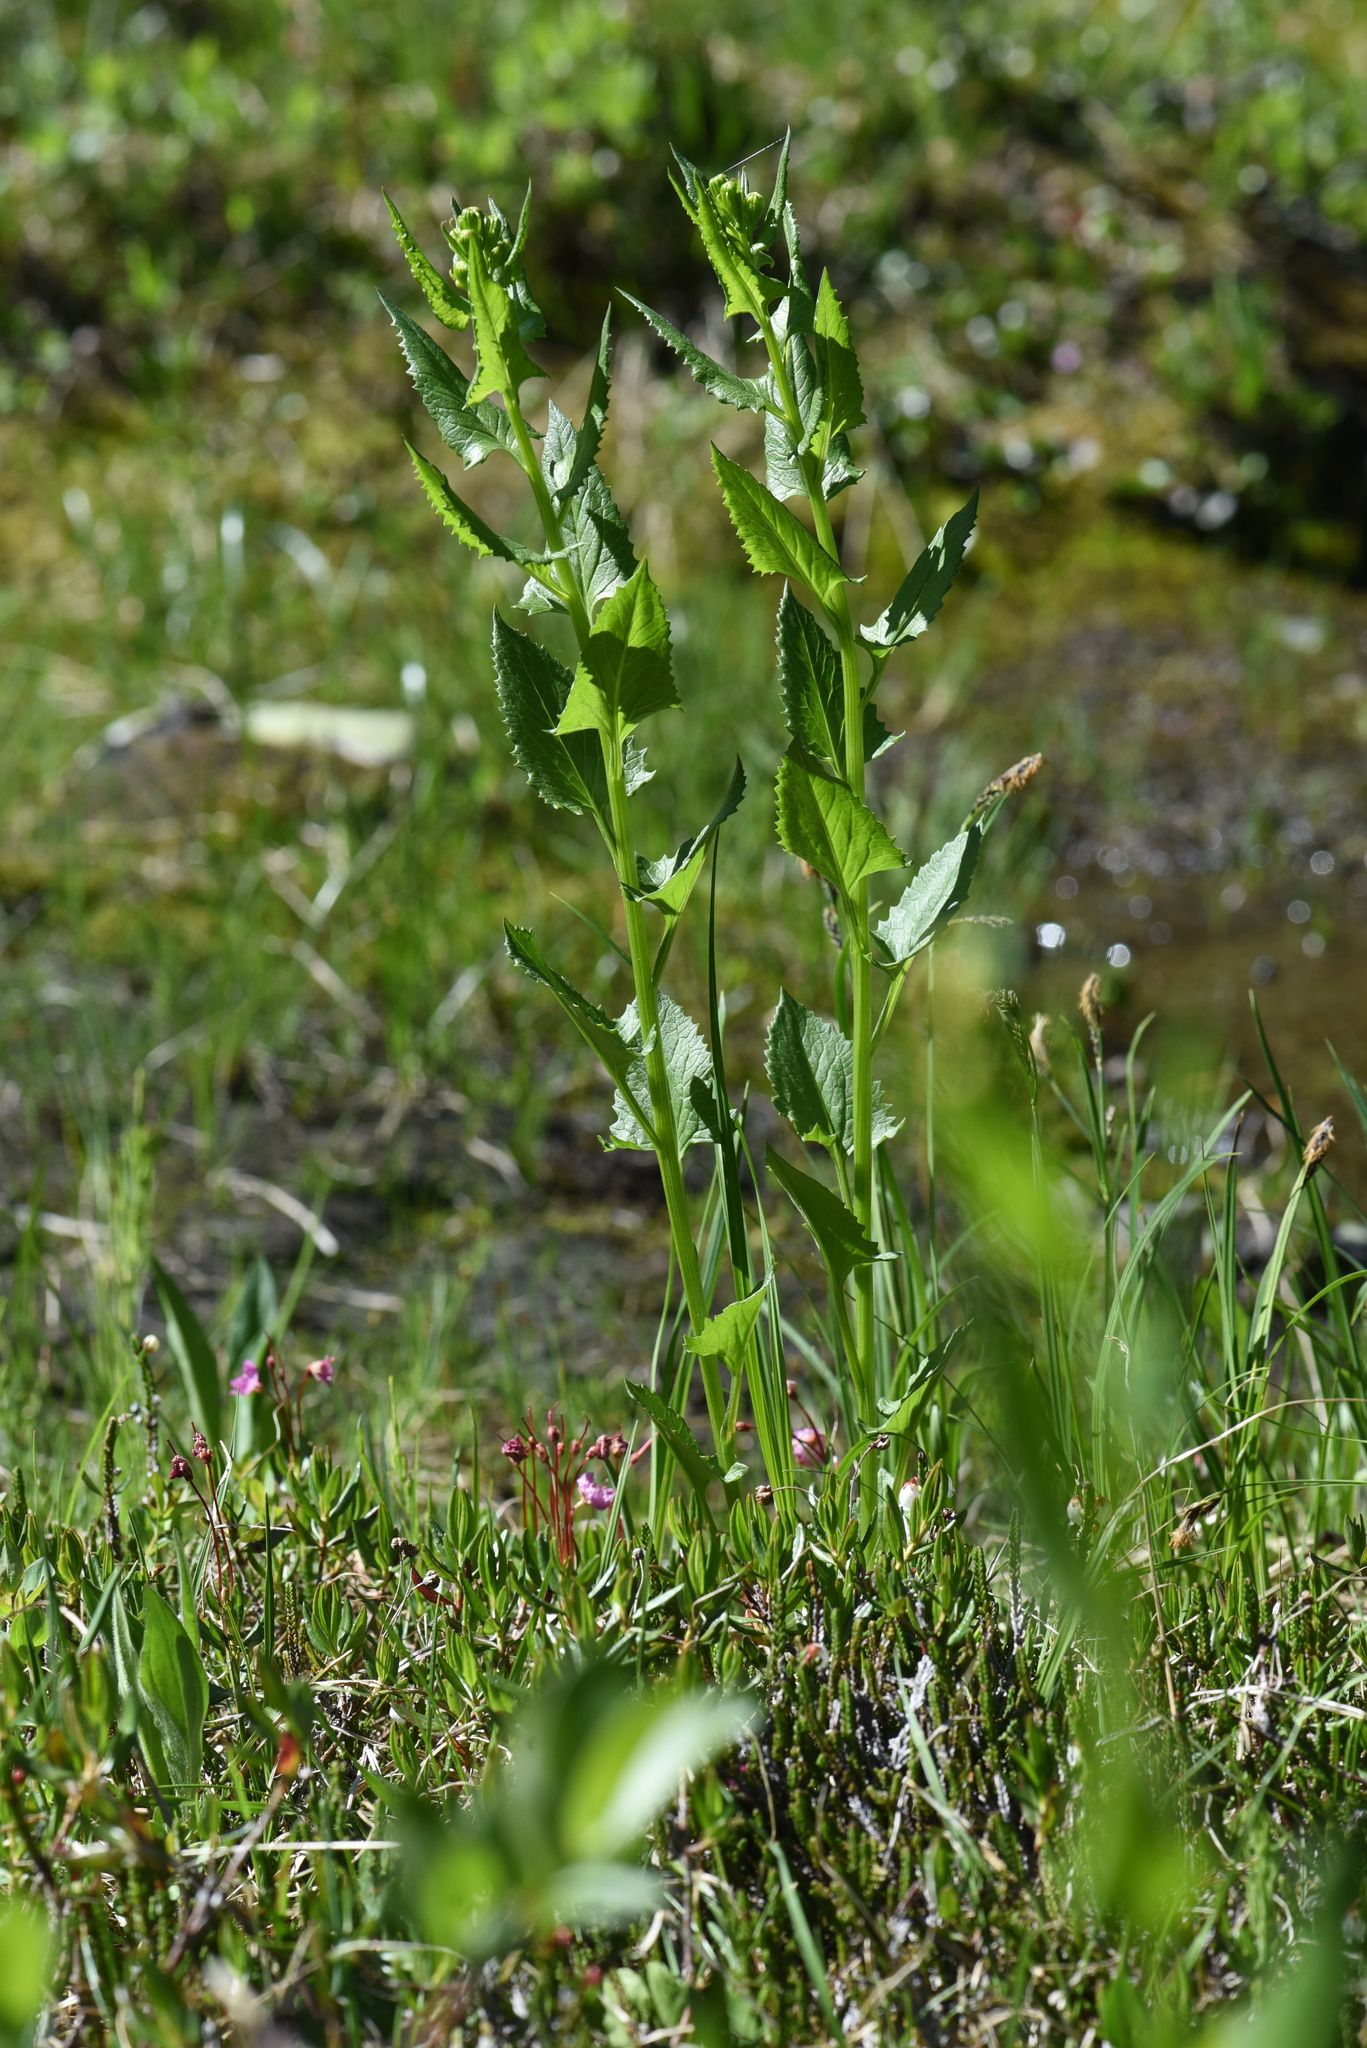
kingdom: Plantae
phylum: Tracheophyta
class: Magnoliopsida
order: Asterales
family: Asteraceae
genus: Senecio
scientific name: Senecio triangularis
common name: Arrowleaf butterweed
